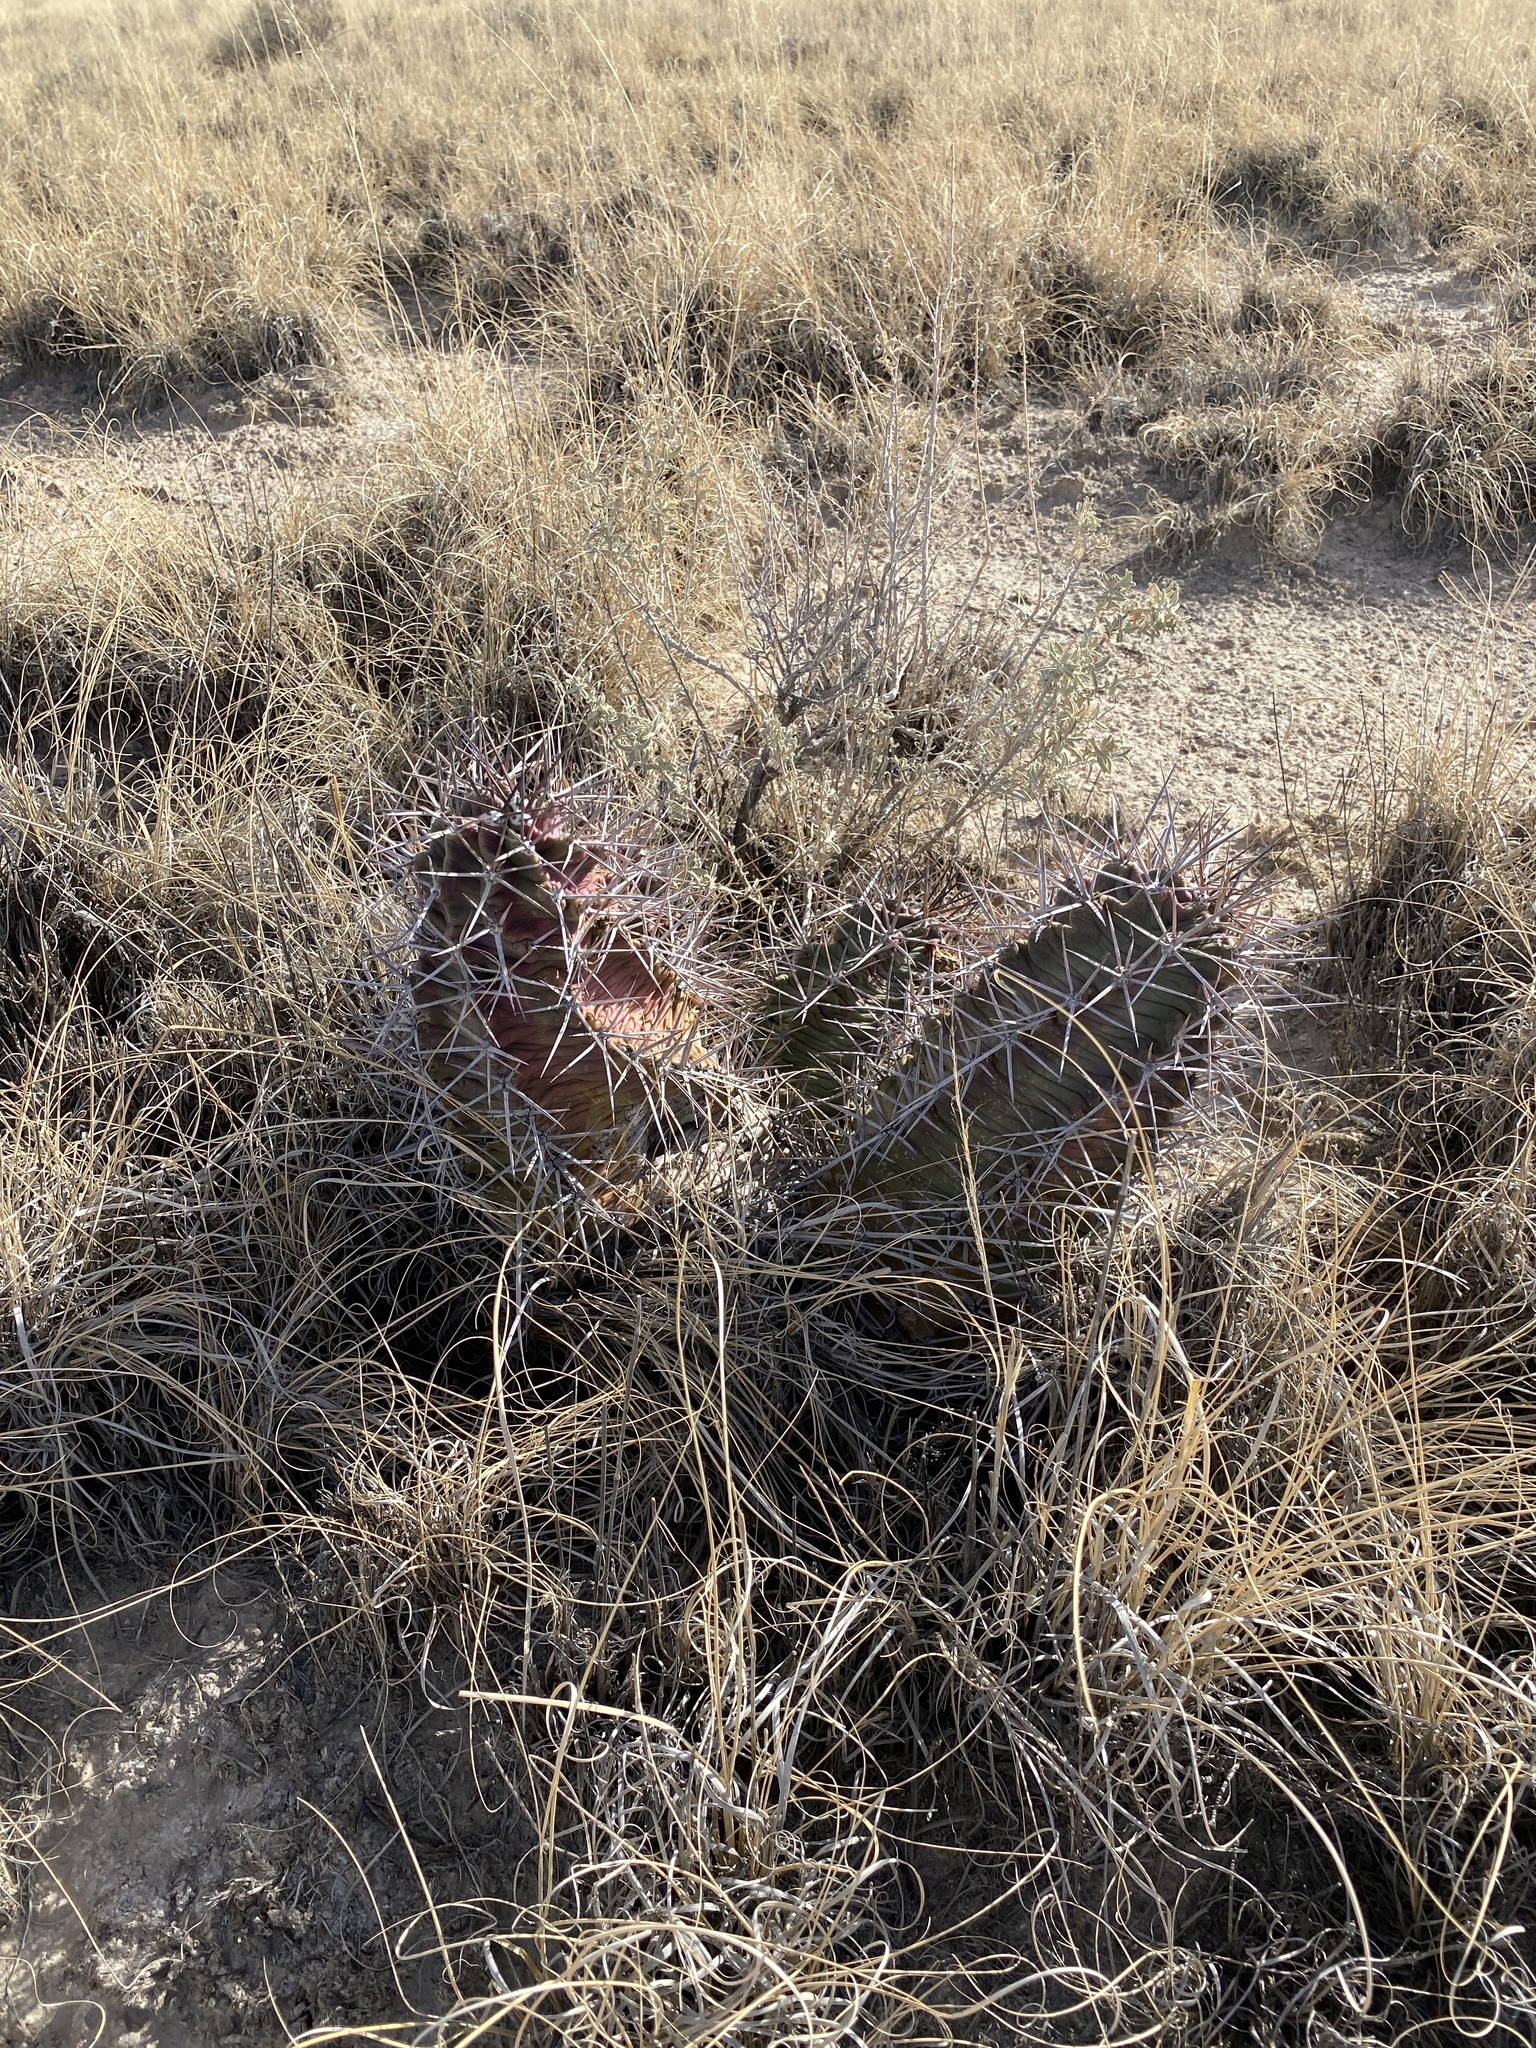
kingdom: Plantae
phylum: Tracheophyta
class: Magnoliopsida
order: Caryophyllales
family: Cactaceae
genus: Echinocereus
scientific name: Echinocereus triglochidiatus
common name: Claretcup hedgehog
